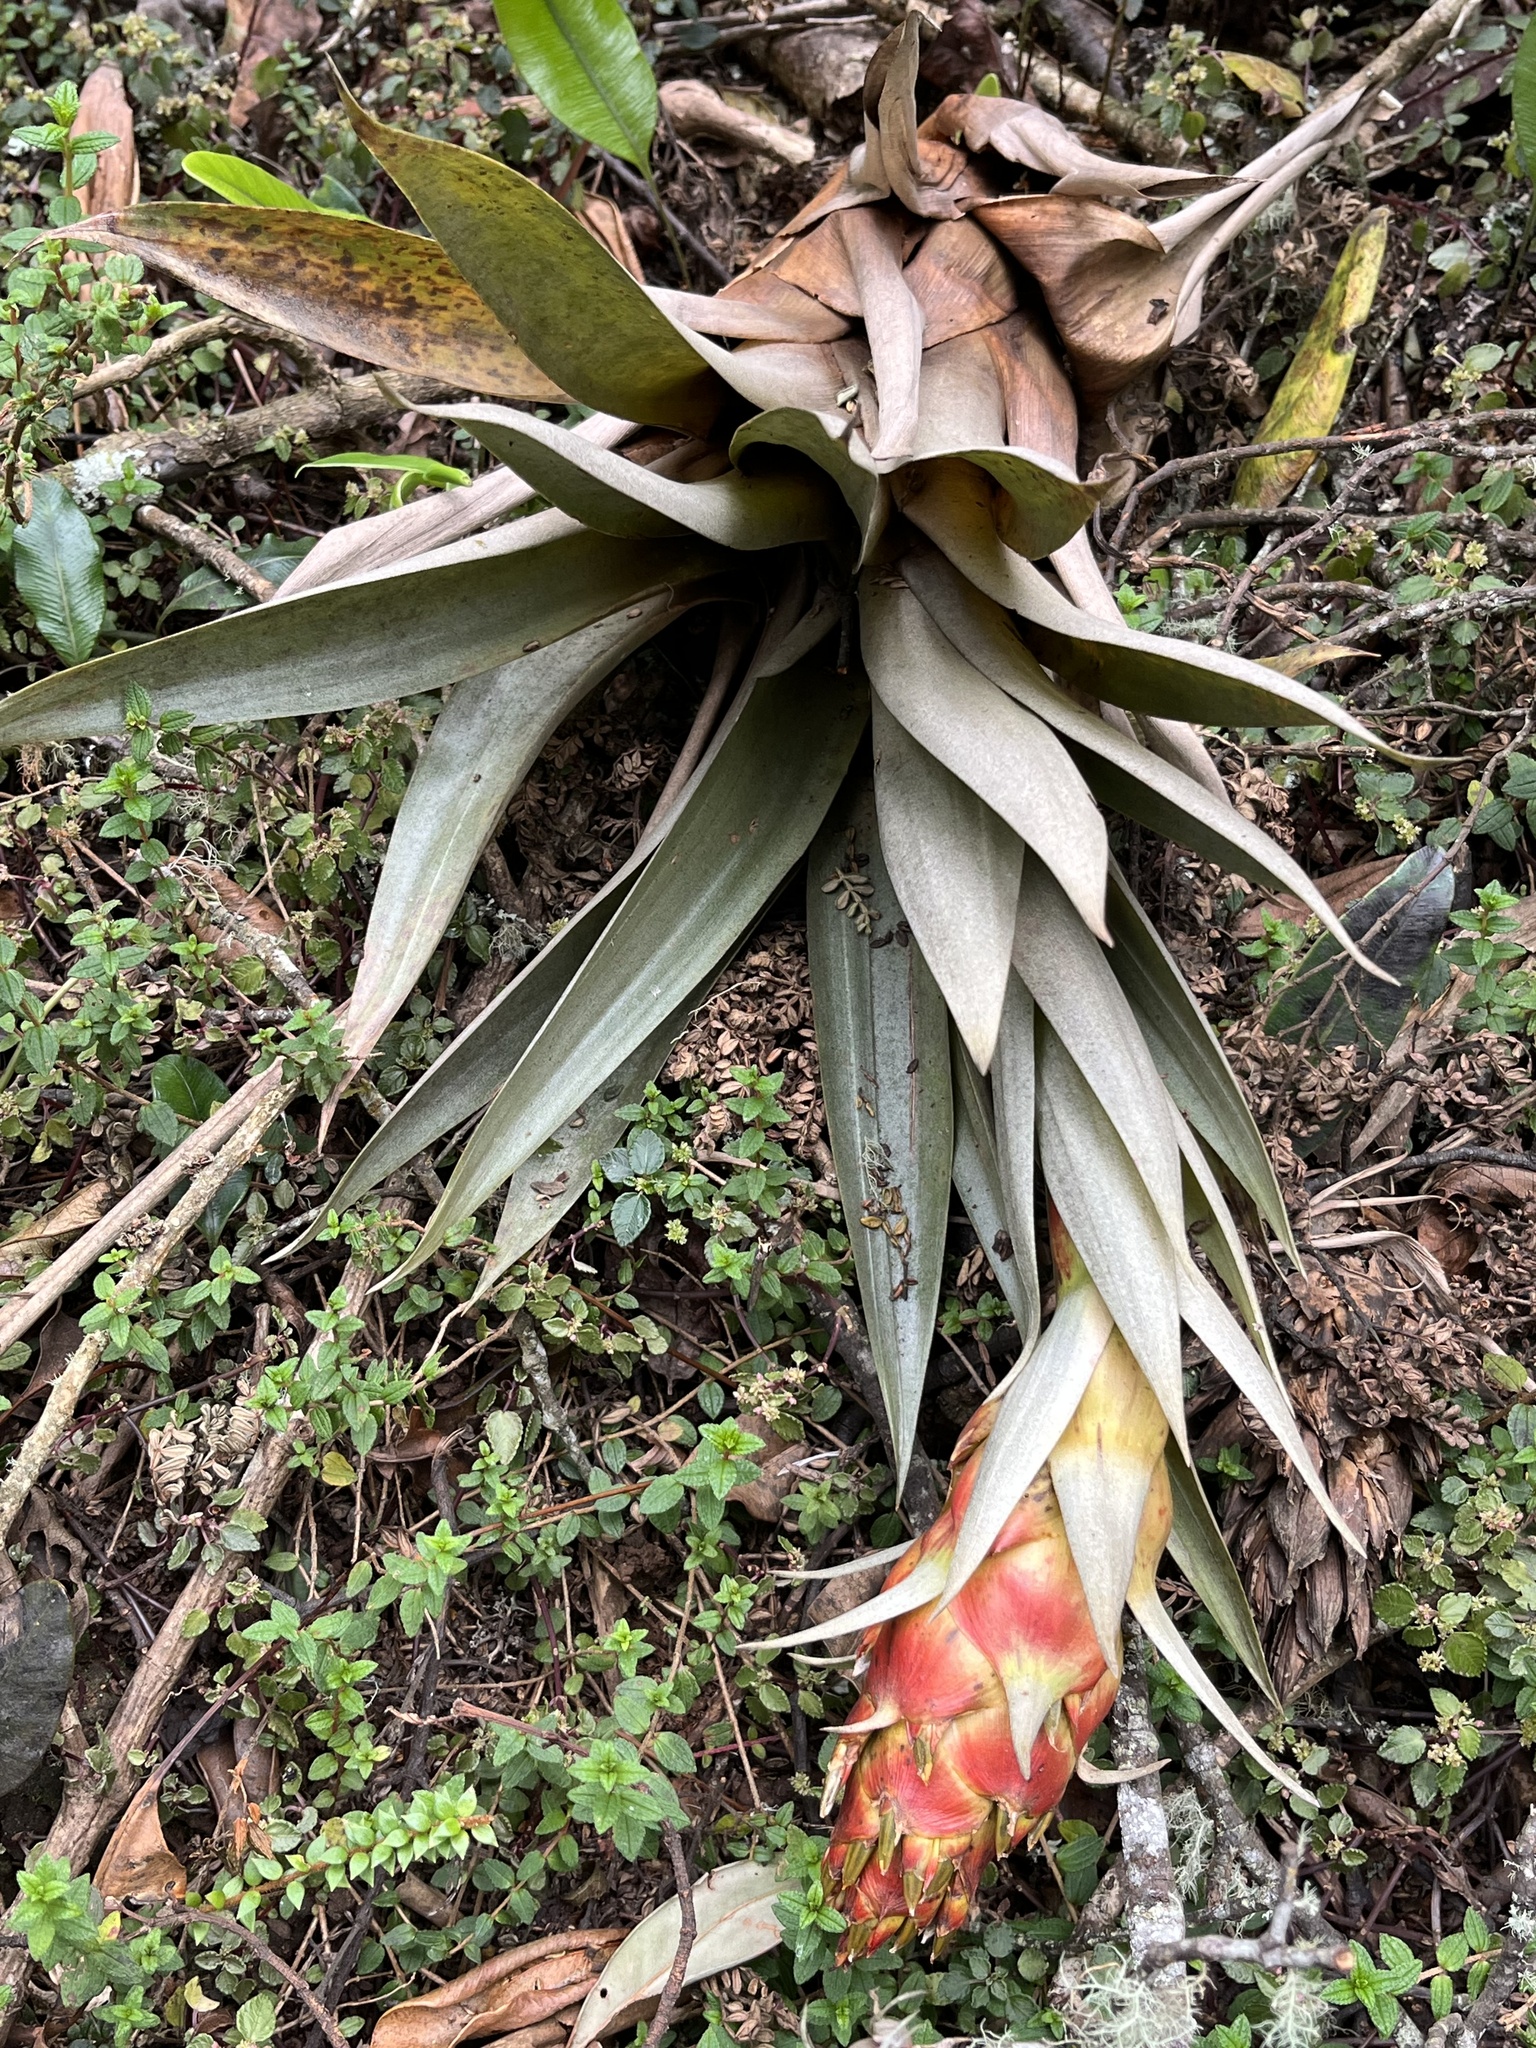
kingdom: Plantae
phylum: Tracheophyta
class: Liliopsida
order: Poales
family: Bromeliaceae
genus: Tillandsia
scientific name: Tillandsia turneri
